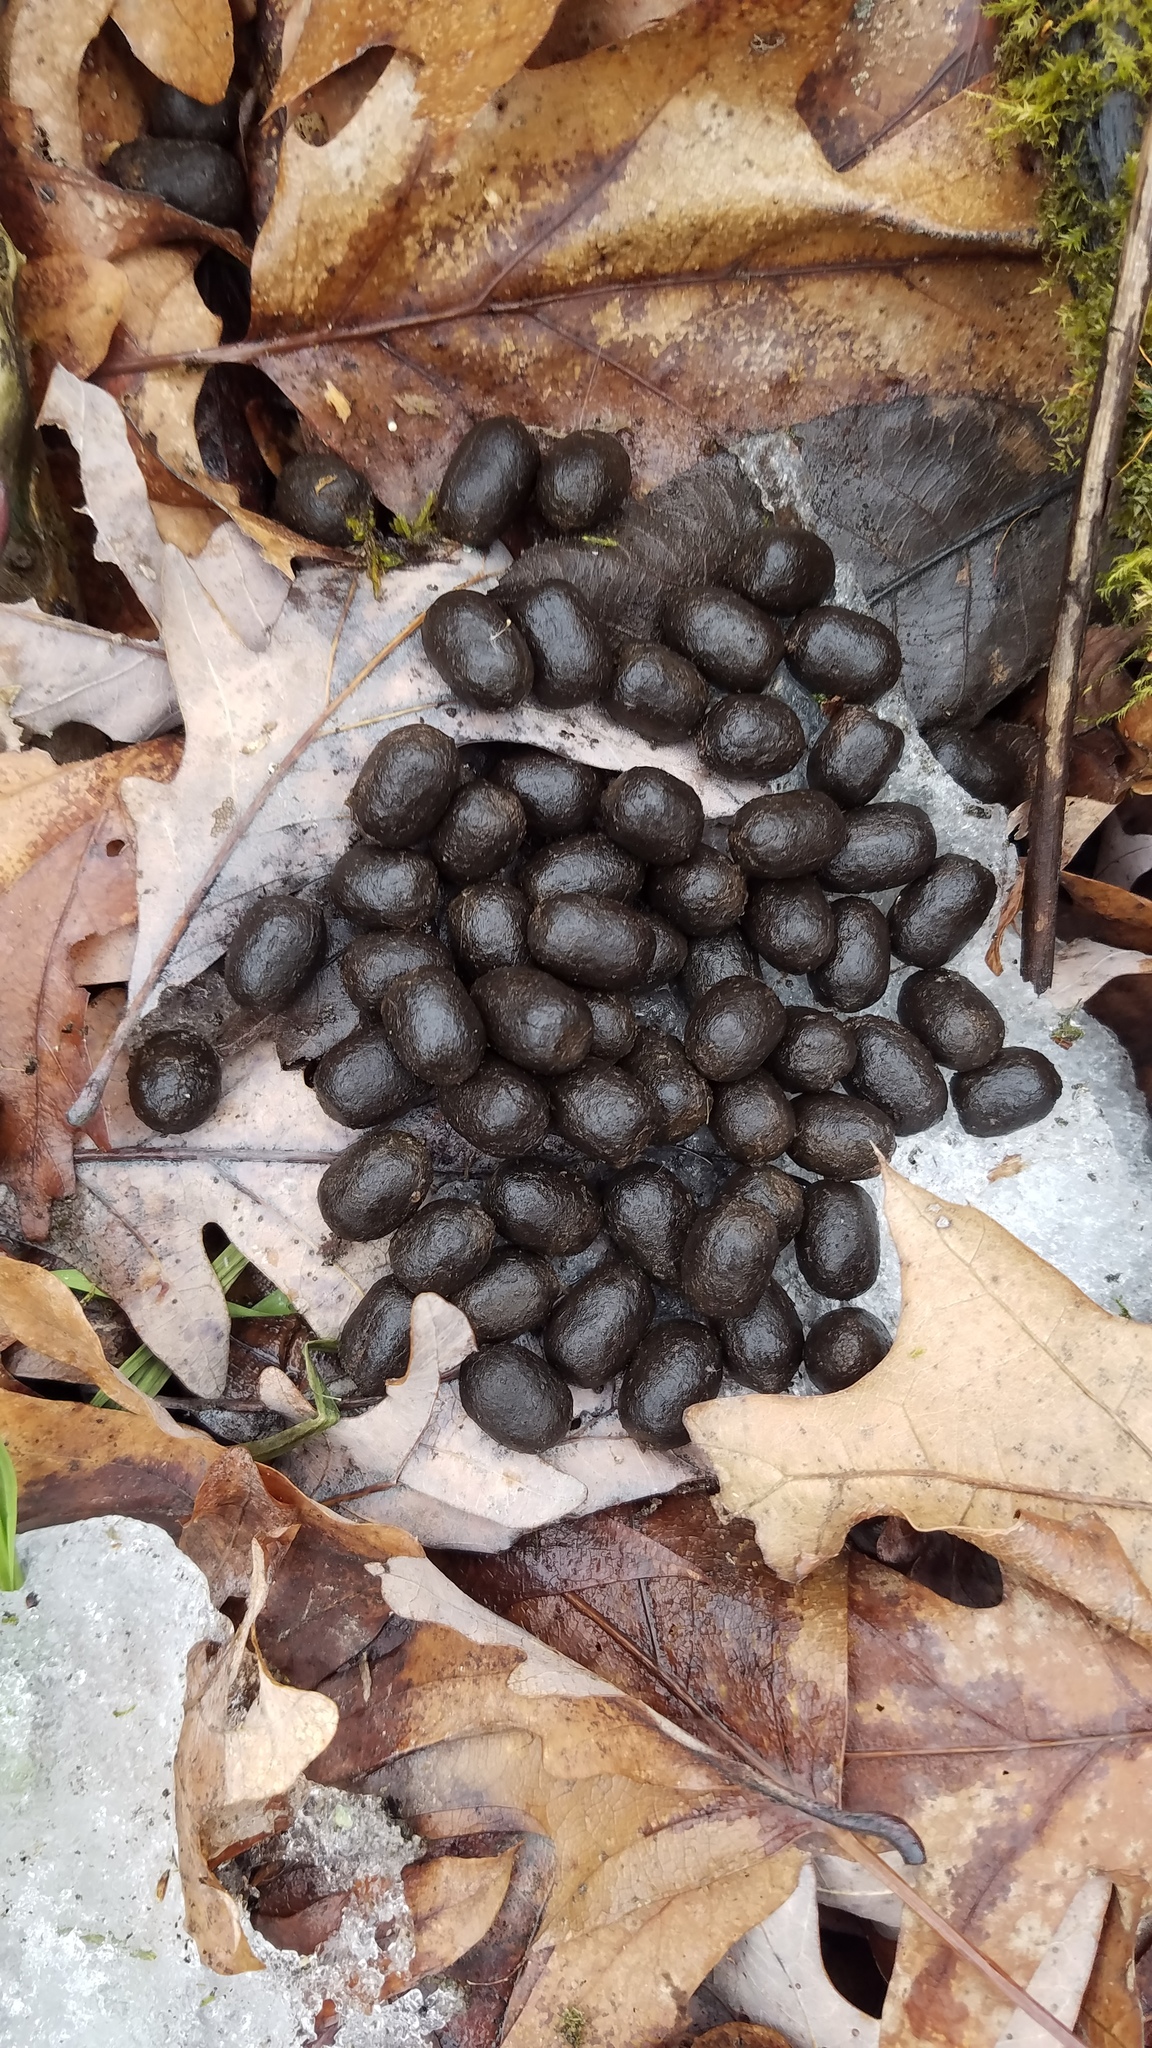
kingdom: Animalia
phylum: Chordata
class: Mammalia
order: Artiodactyla
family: Cervidae
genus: Odocoileus
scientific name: Odocoileus virginianus
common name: White-tailed deer
